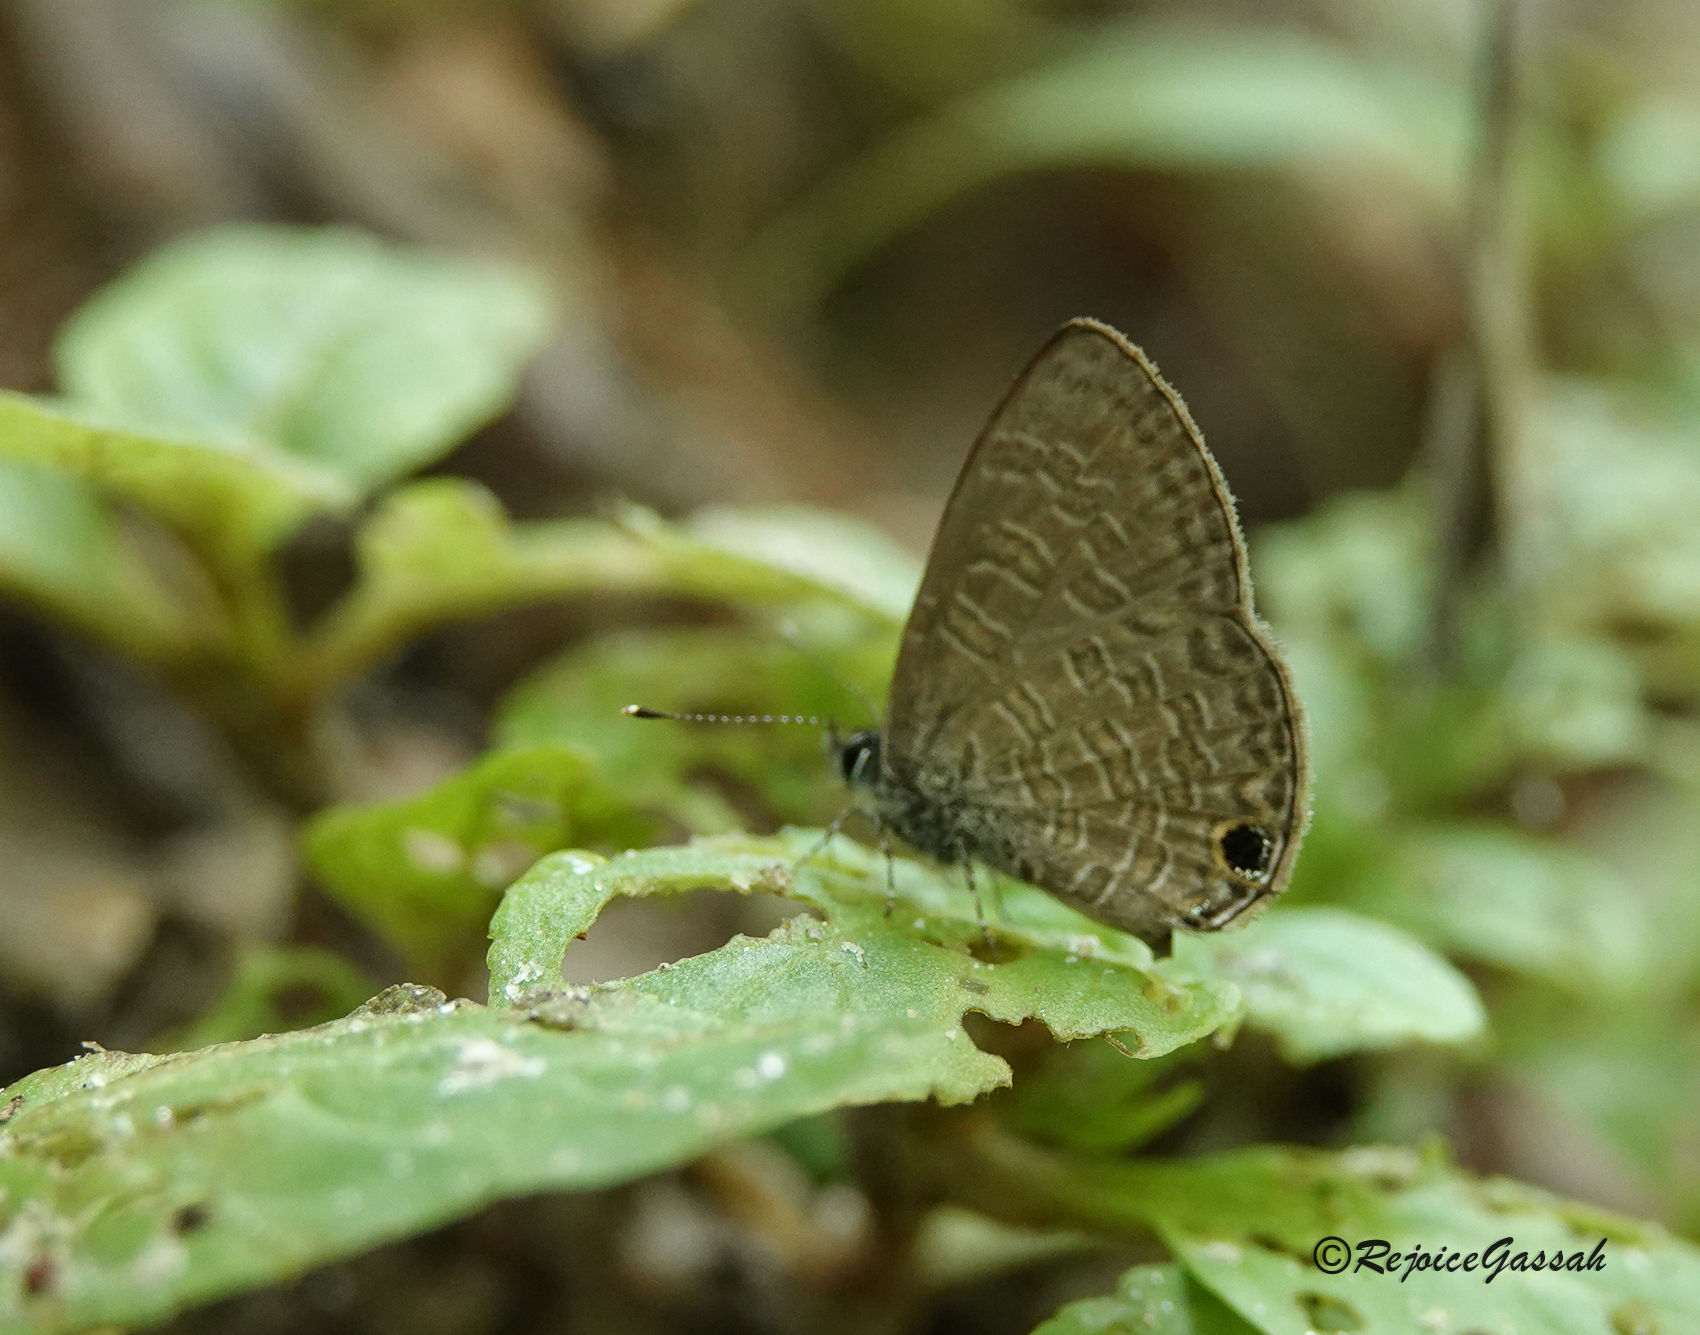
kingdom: Animalia
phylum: Arthropoda
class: Insecta
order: Lepidoptera
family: Lycaenidae
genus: Prosotas
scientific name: Prosotas nora
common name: Common line blue
